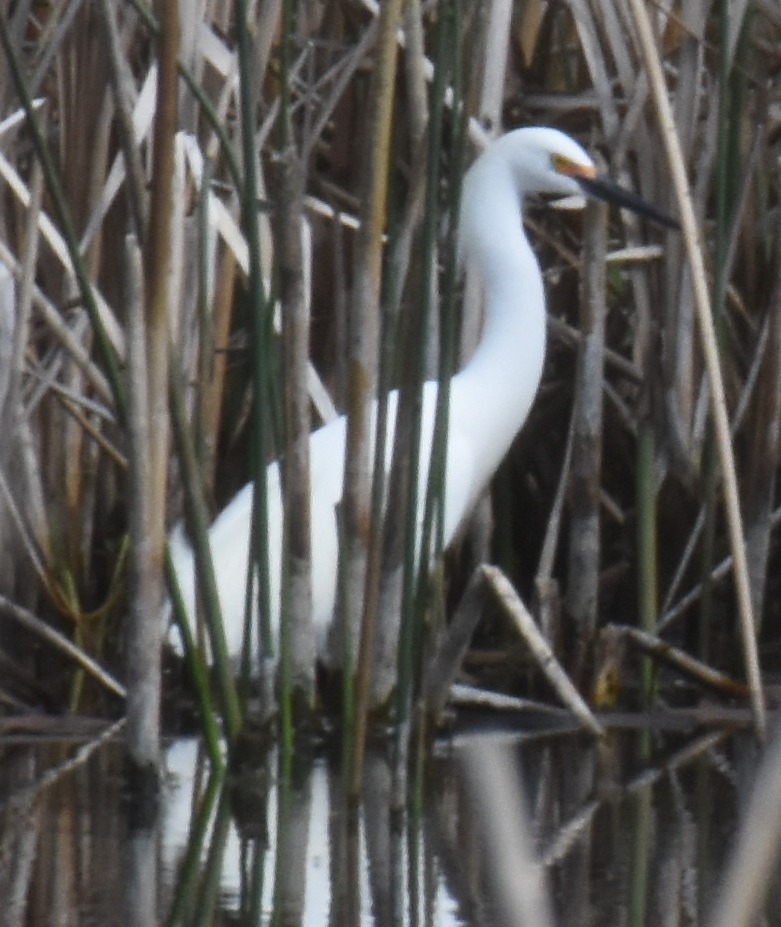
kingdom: Animalia
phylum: Chordata
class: Aves
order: Pelecaniformes
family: Ardeidae
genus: Egretta
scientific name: Egretta thula
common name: Snowy egret
